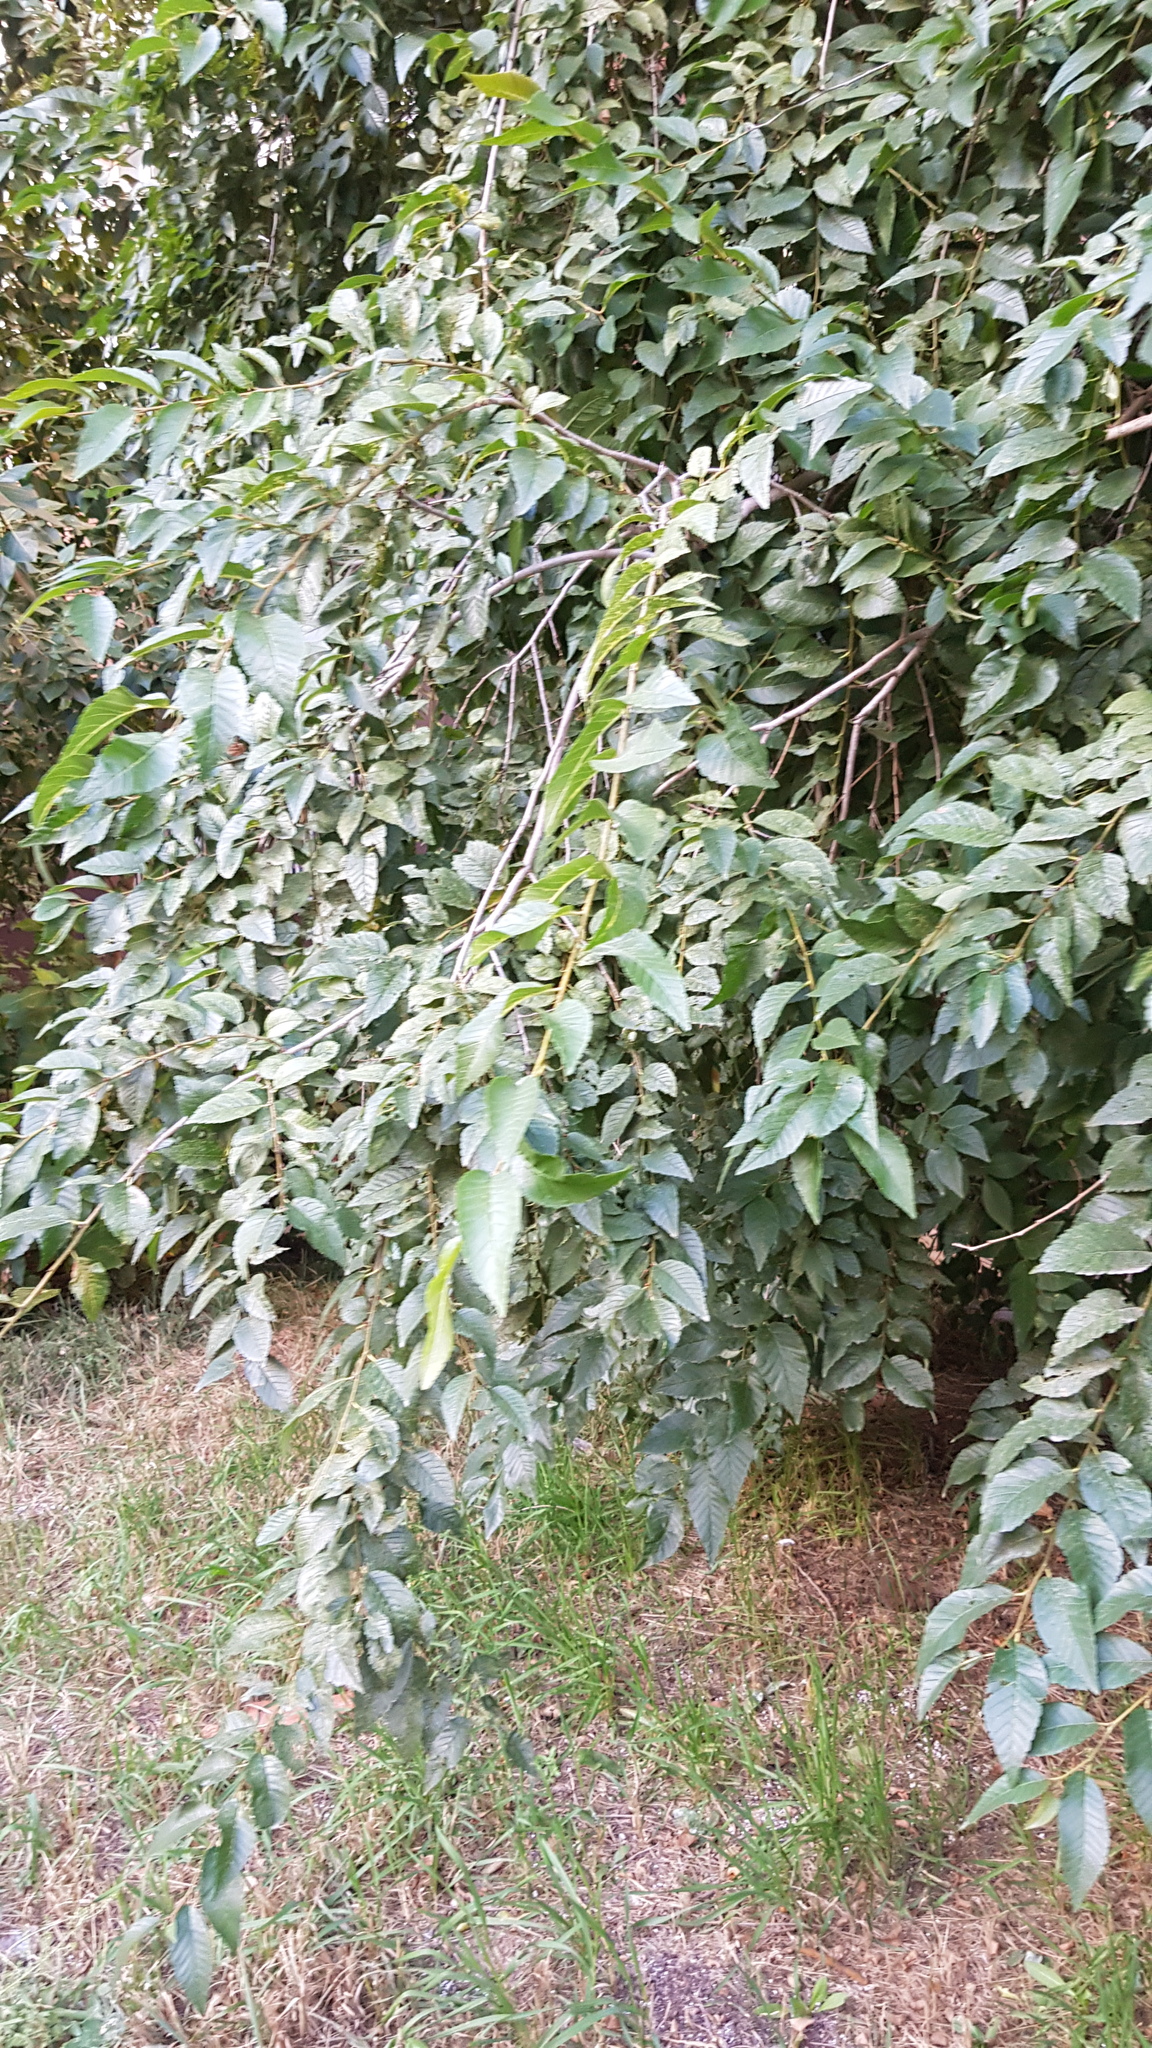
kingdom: Plantae
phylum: Tracheophyta
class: Magnoliopsida
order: Rosales
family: Ulmaceae
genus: Ulmus
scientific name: Ulmus pumila
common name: Siberian elm
